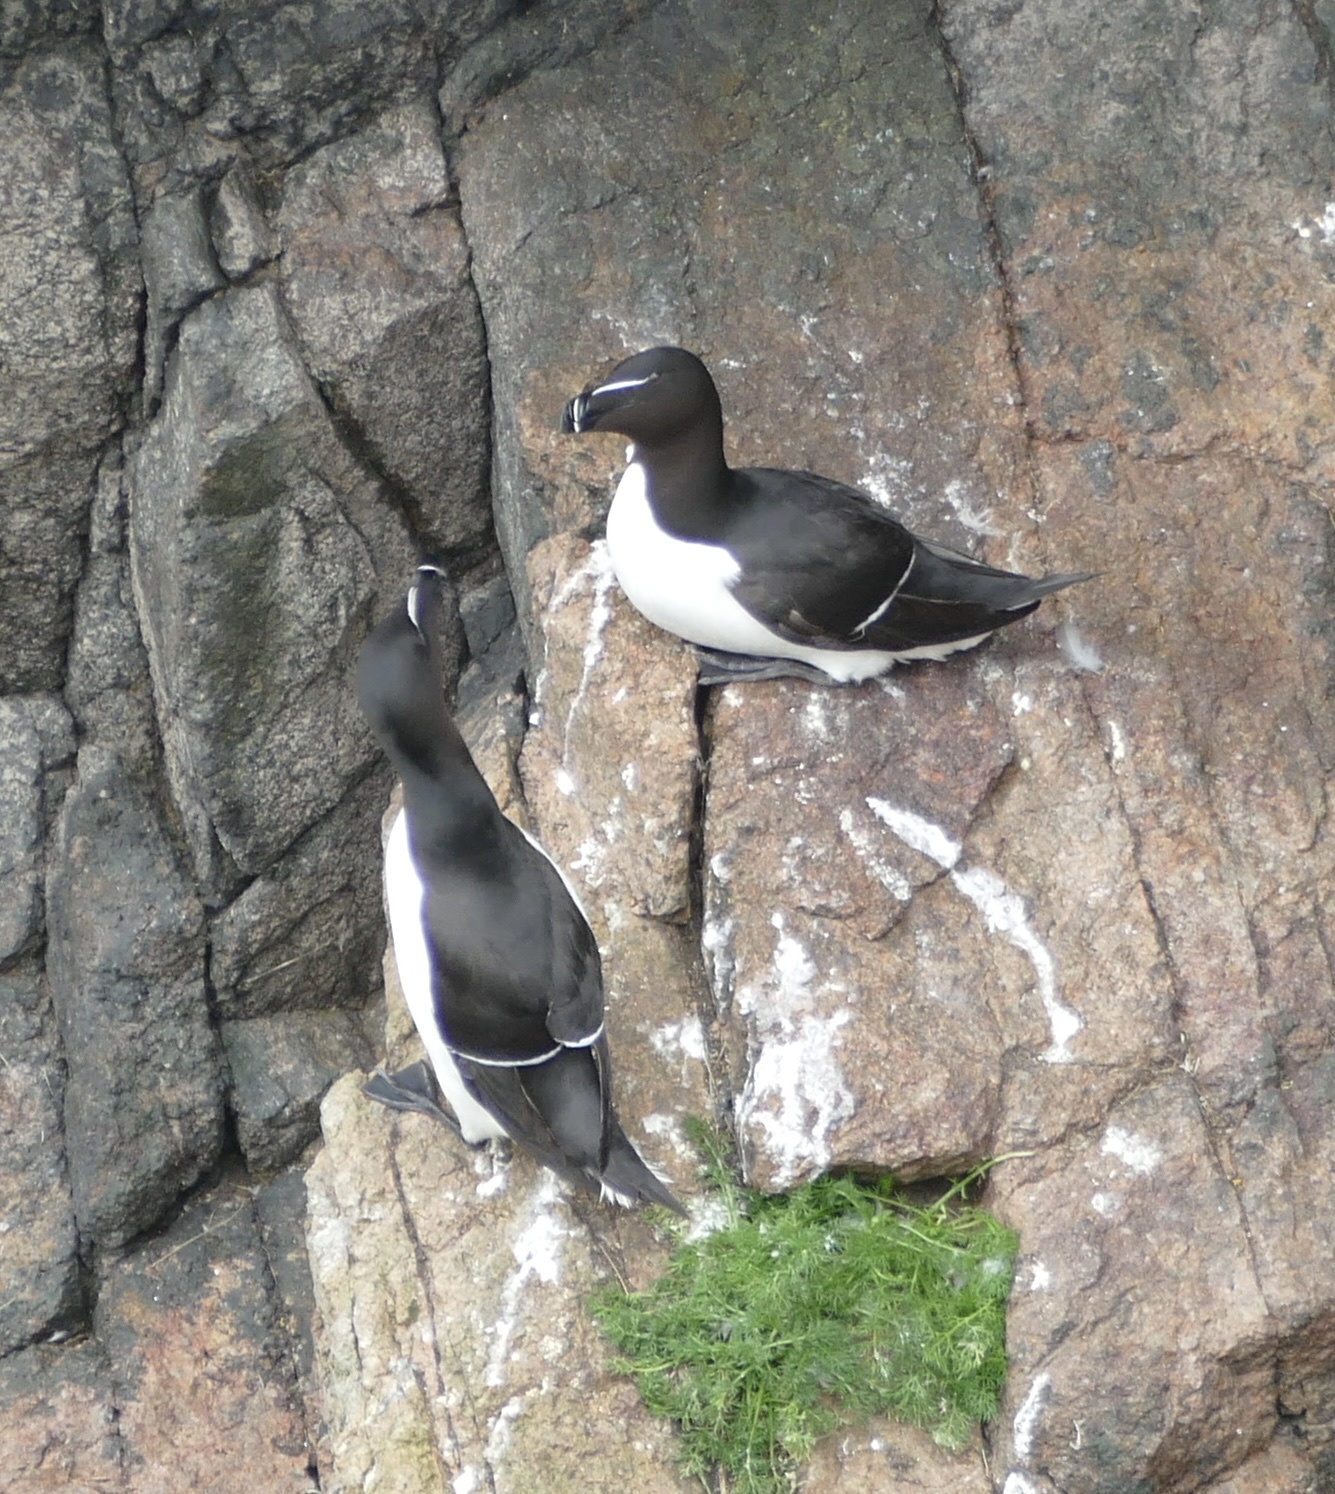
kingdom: Animalia
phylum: Chordata
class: Aves
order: Charadriiformes
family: Alcidae
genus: Alca
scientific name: Alca torda
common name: Razorbill
